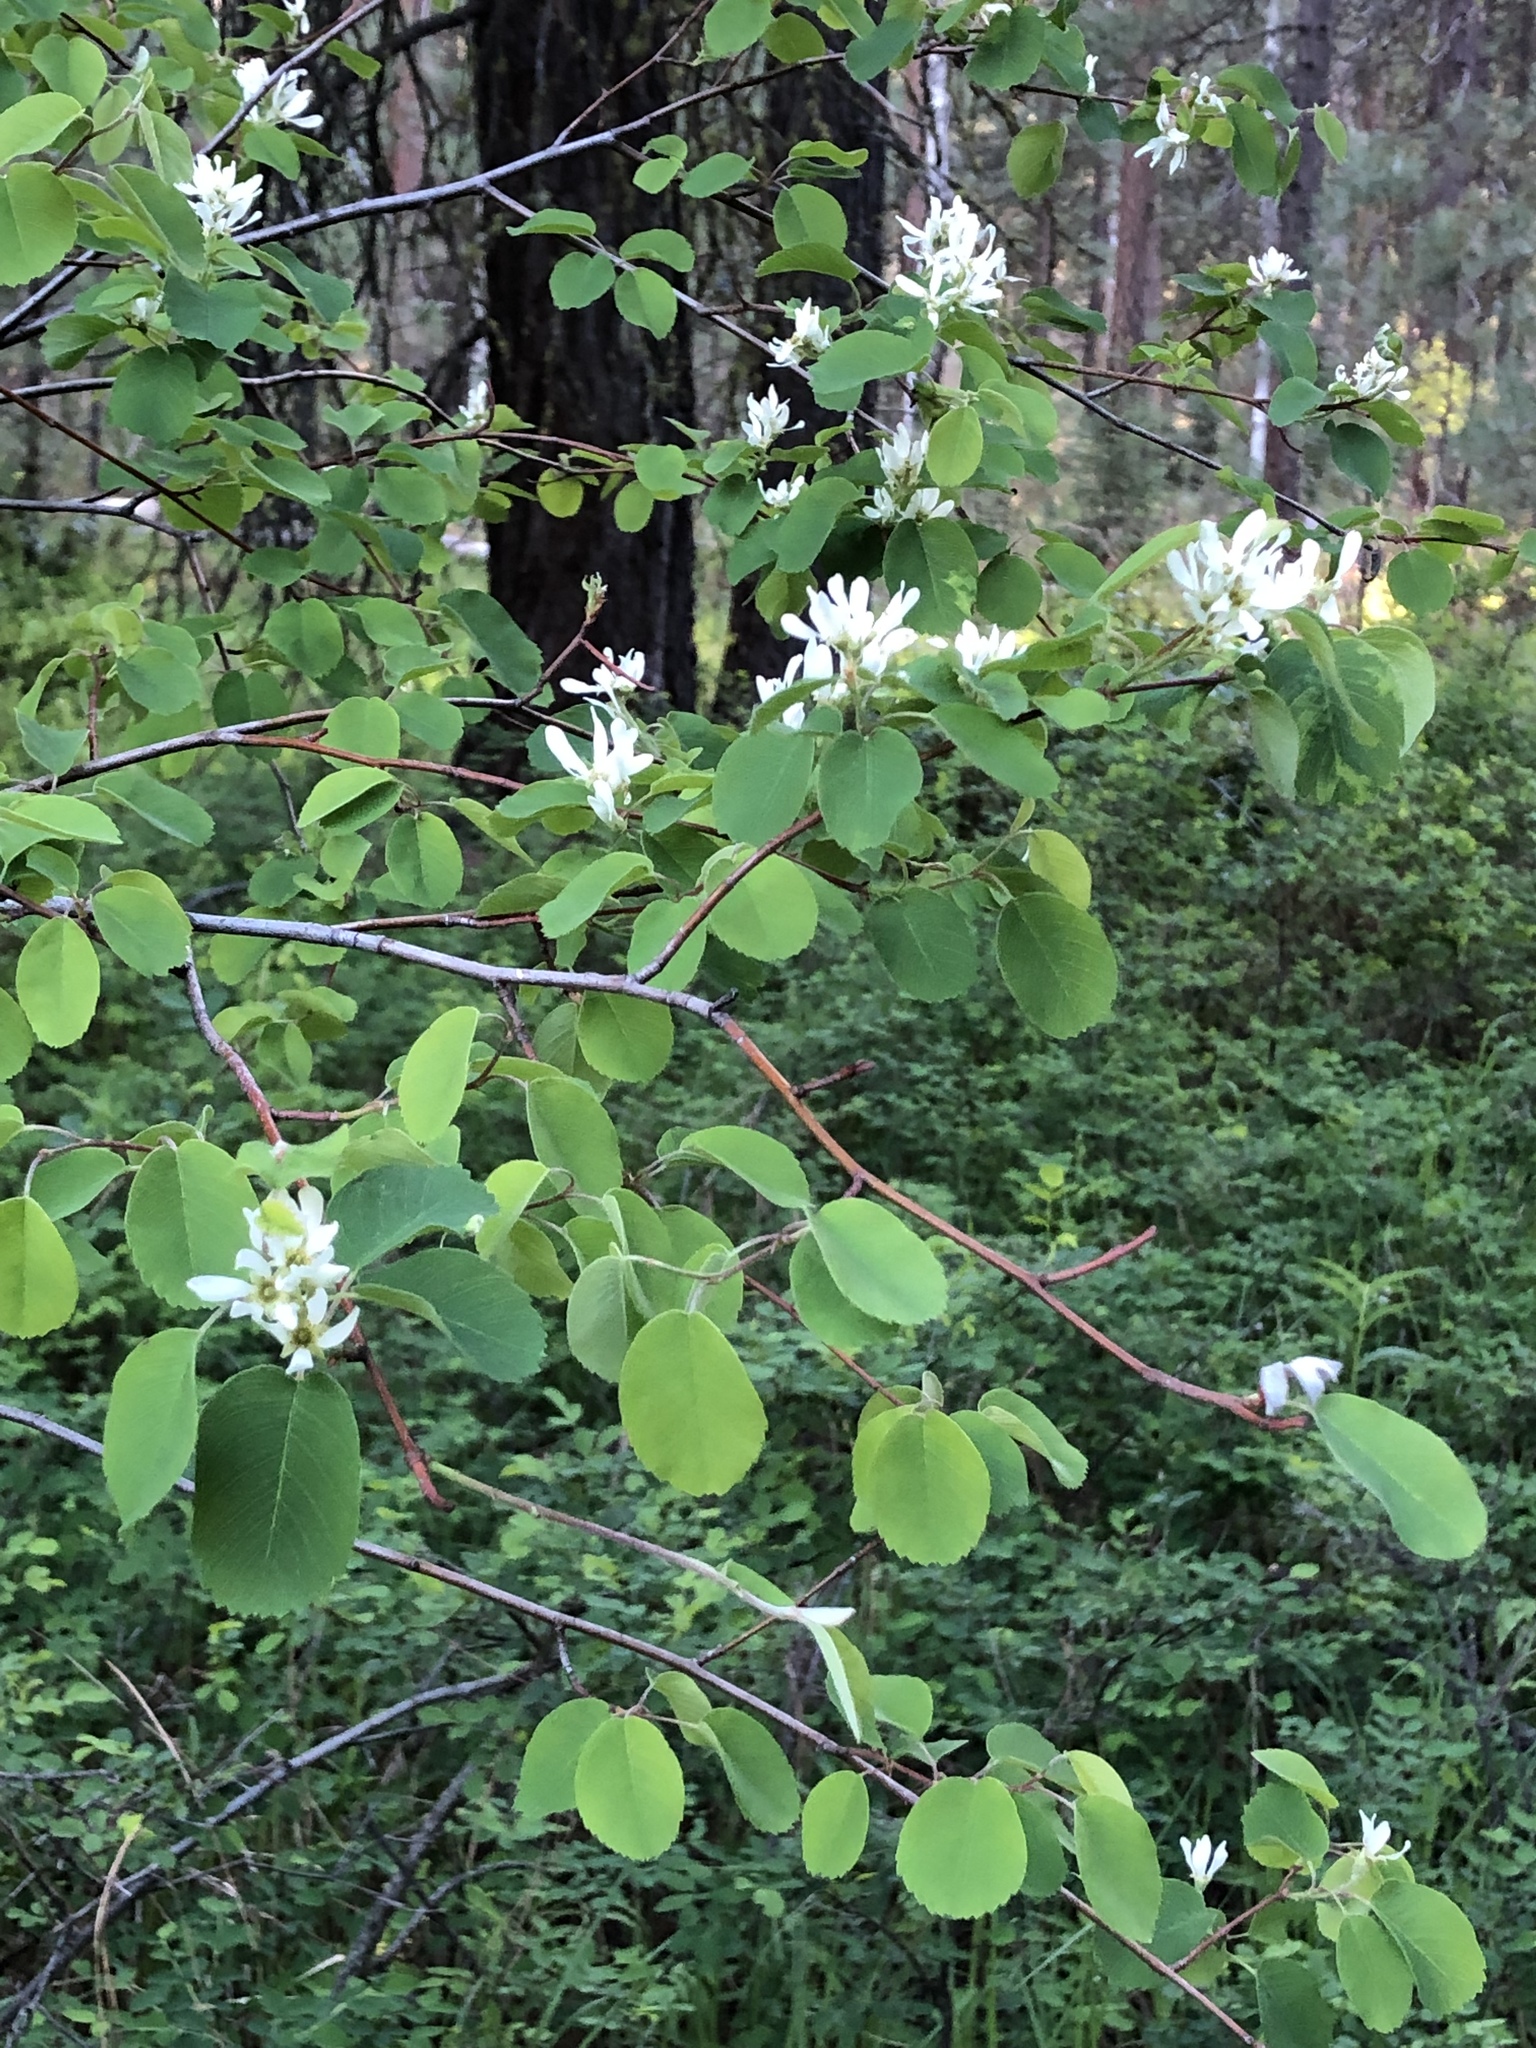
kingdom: Plantae
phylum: Tracheophyta
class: Magnoliopsida
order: Rosales
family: Rosaceae
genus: Amelanchier
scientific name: Amelanchier alnifolia
